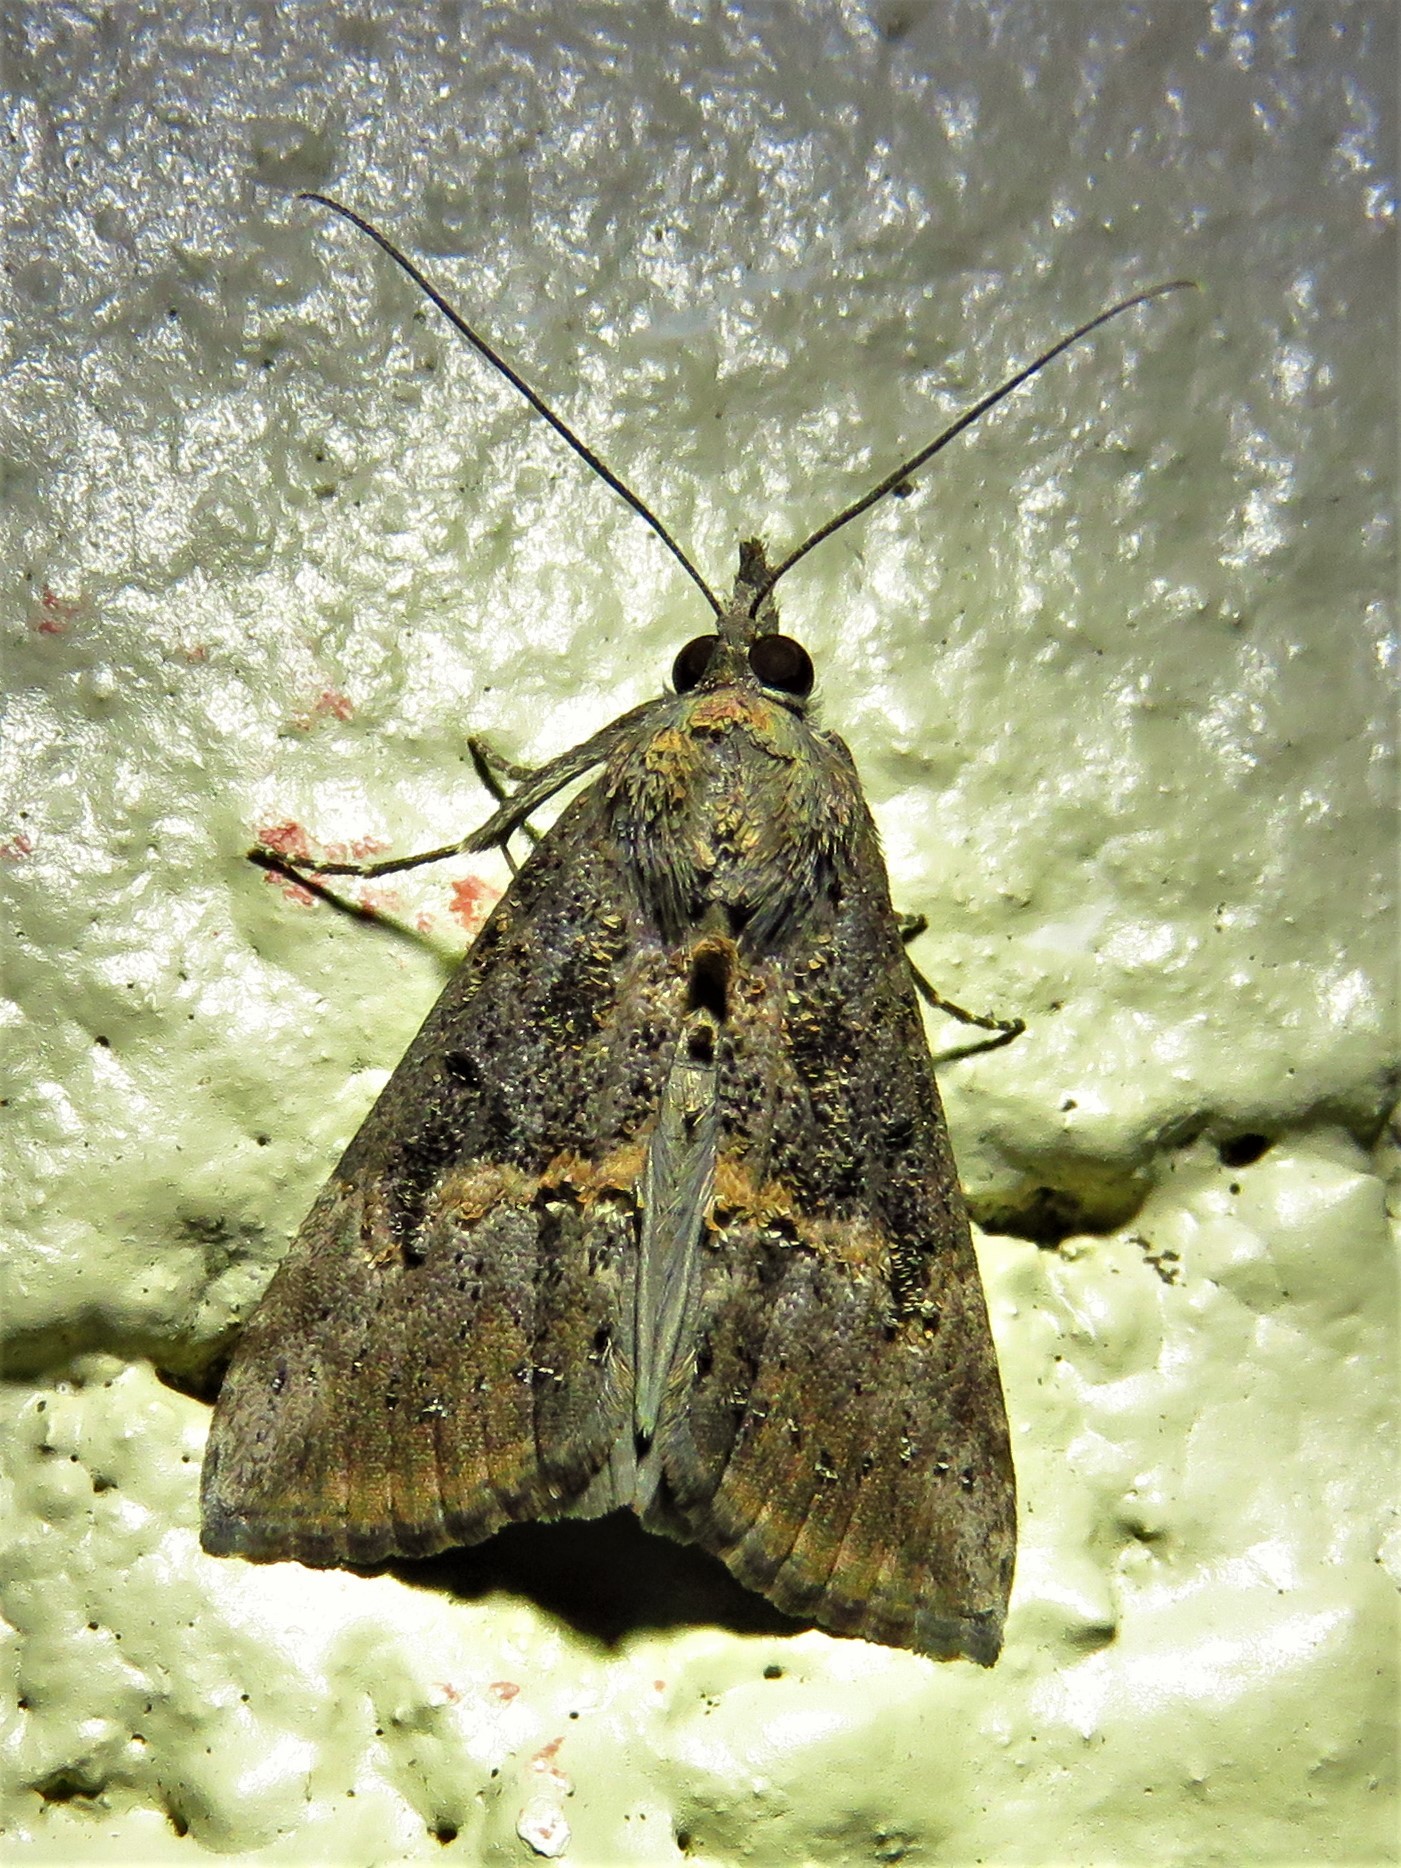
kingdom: Animalia
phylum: Arthropoda
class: Insecta
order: Lepidoptera
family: Erebidae
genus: Hypena
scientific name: Hypena scabra
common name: Green cloverworm
